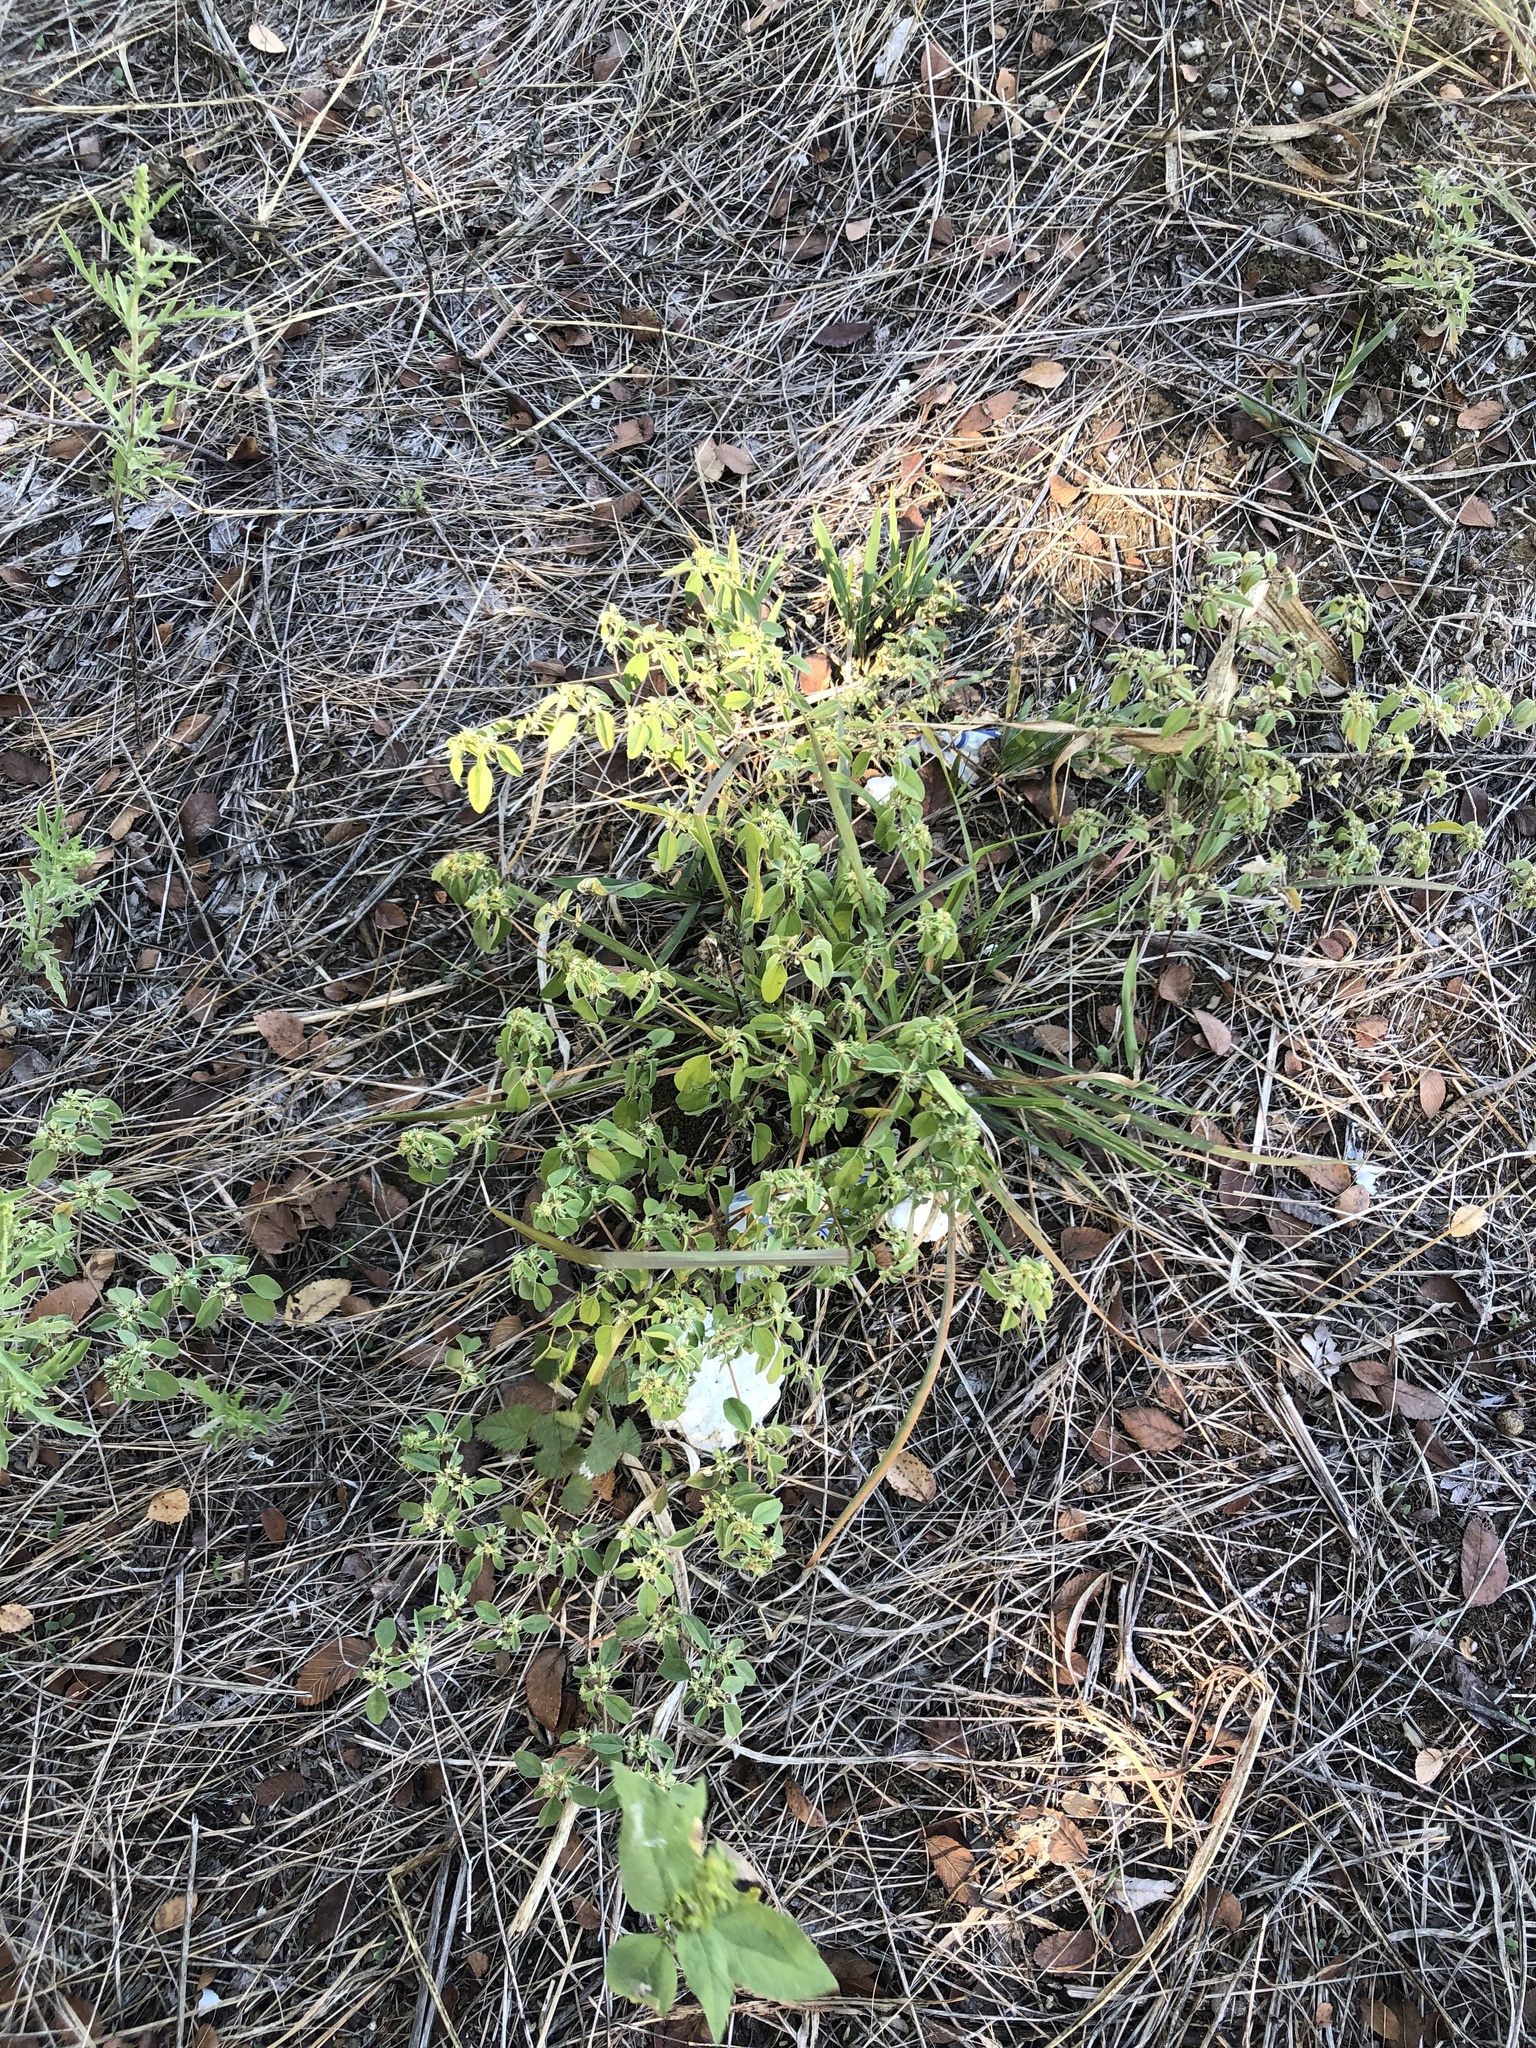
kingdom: Plantae
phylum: Tracheophyta
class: Magnoliopsida
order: Malpighiales
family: Euphorbiaceae
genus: Croton
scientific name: Croton monanthogynus
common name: One-seed croton
